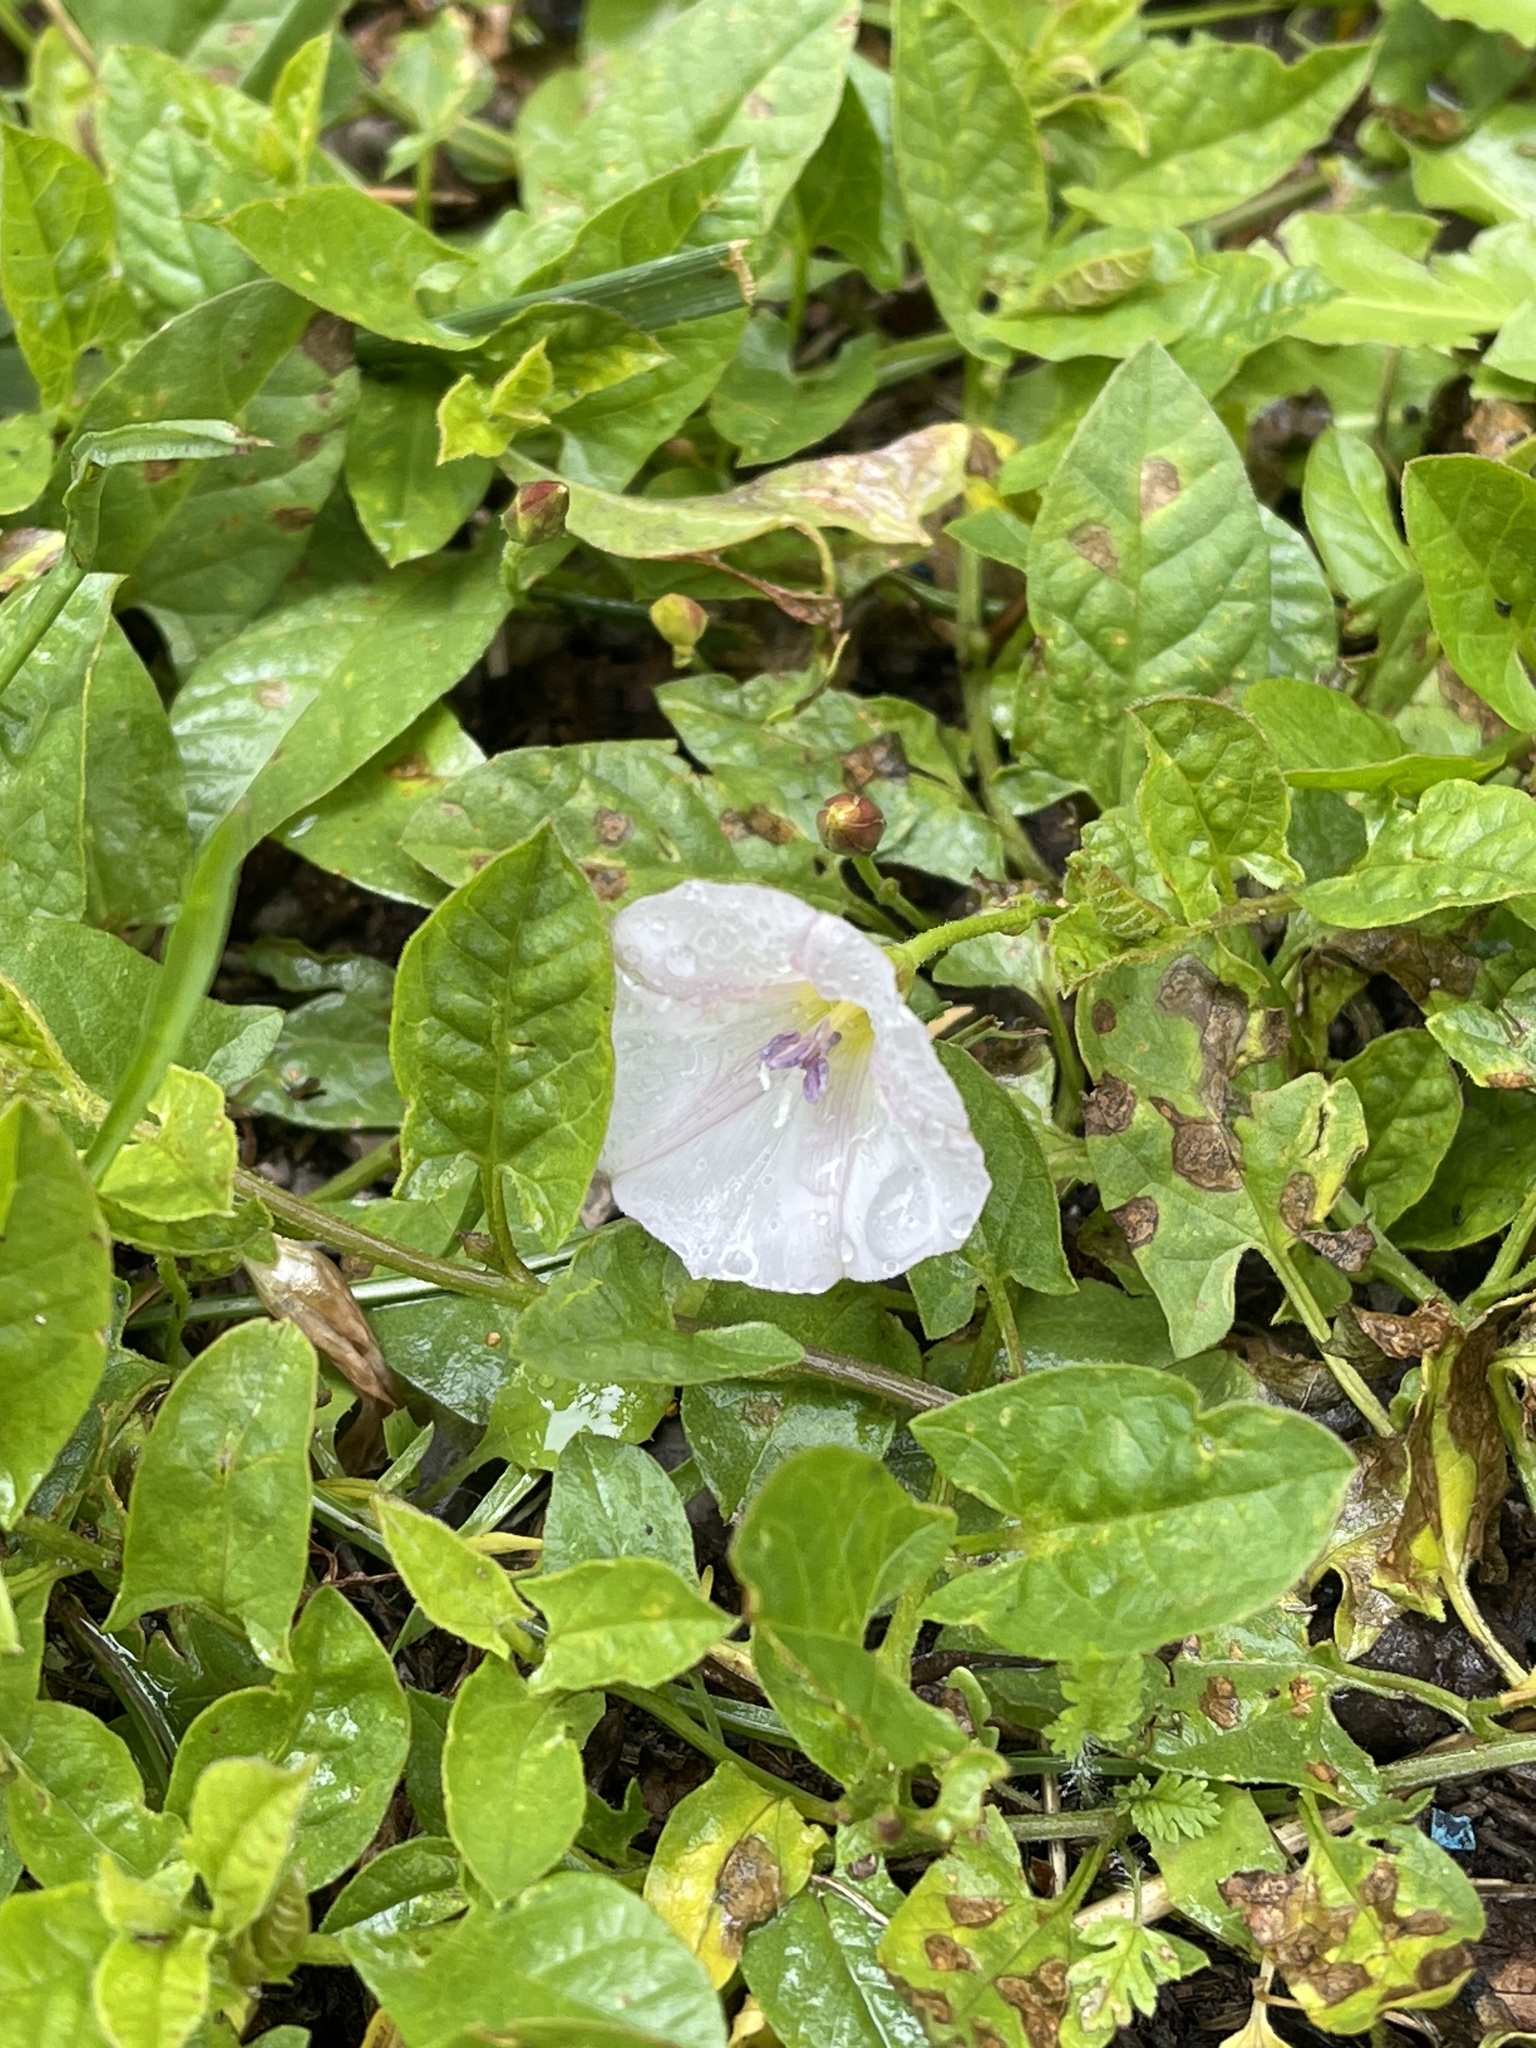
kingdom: Plantae
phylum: Tracheophyta
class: Magnoliopsida
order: Solanales
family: Convolvulaceae
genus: Convolvulus
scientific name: Convolvulus arvensis
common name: Field bindweed
